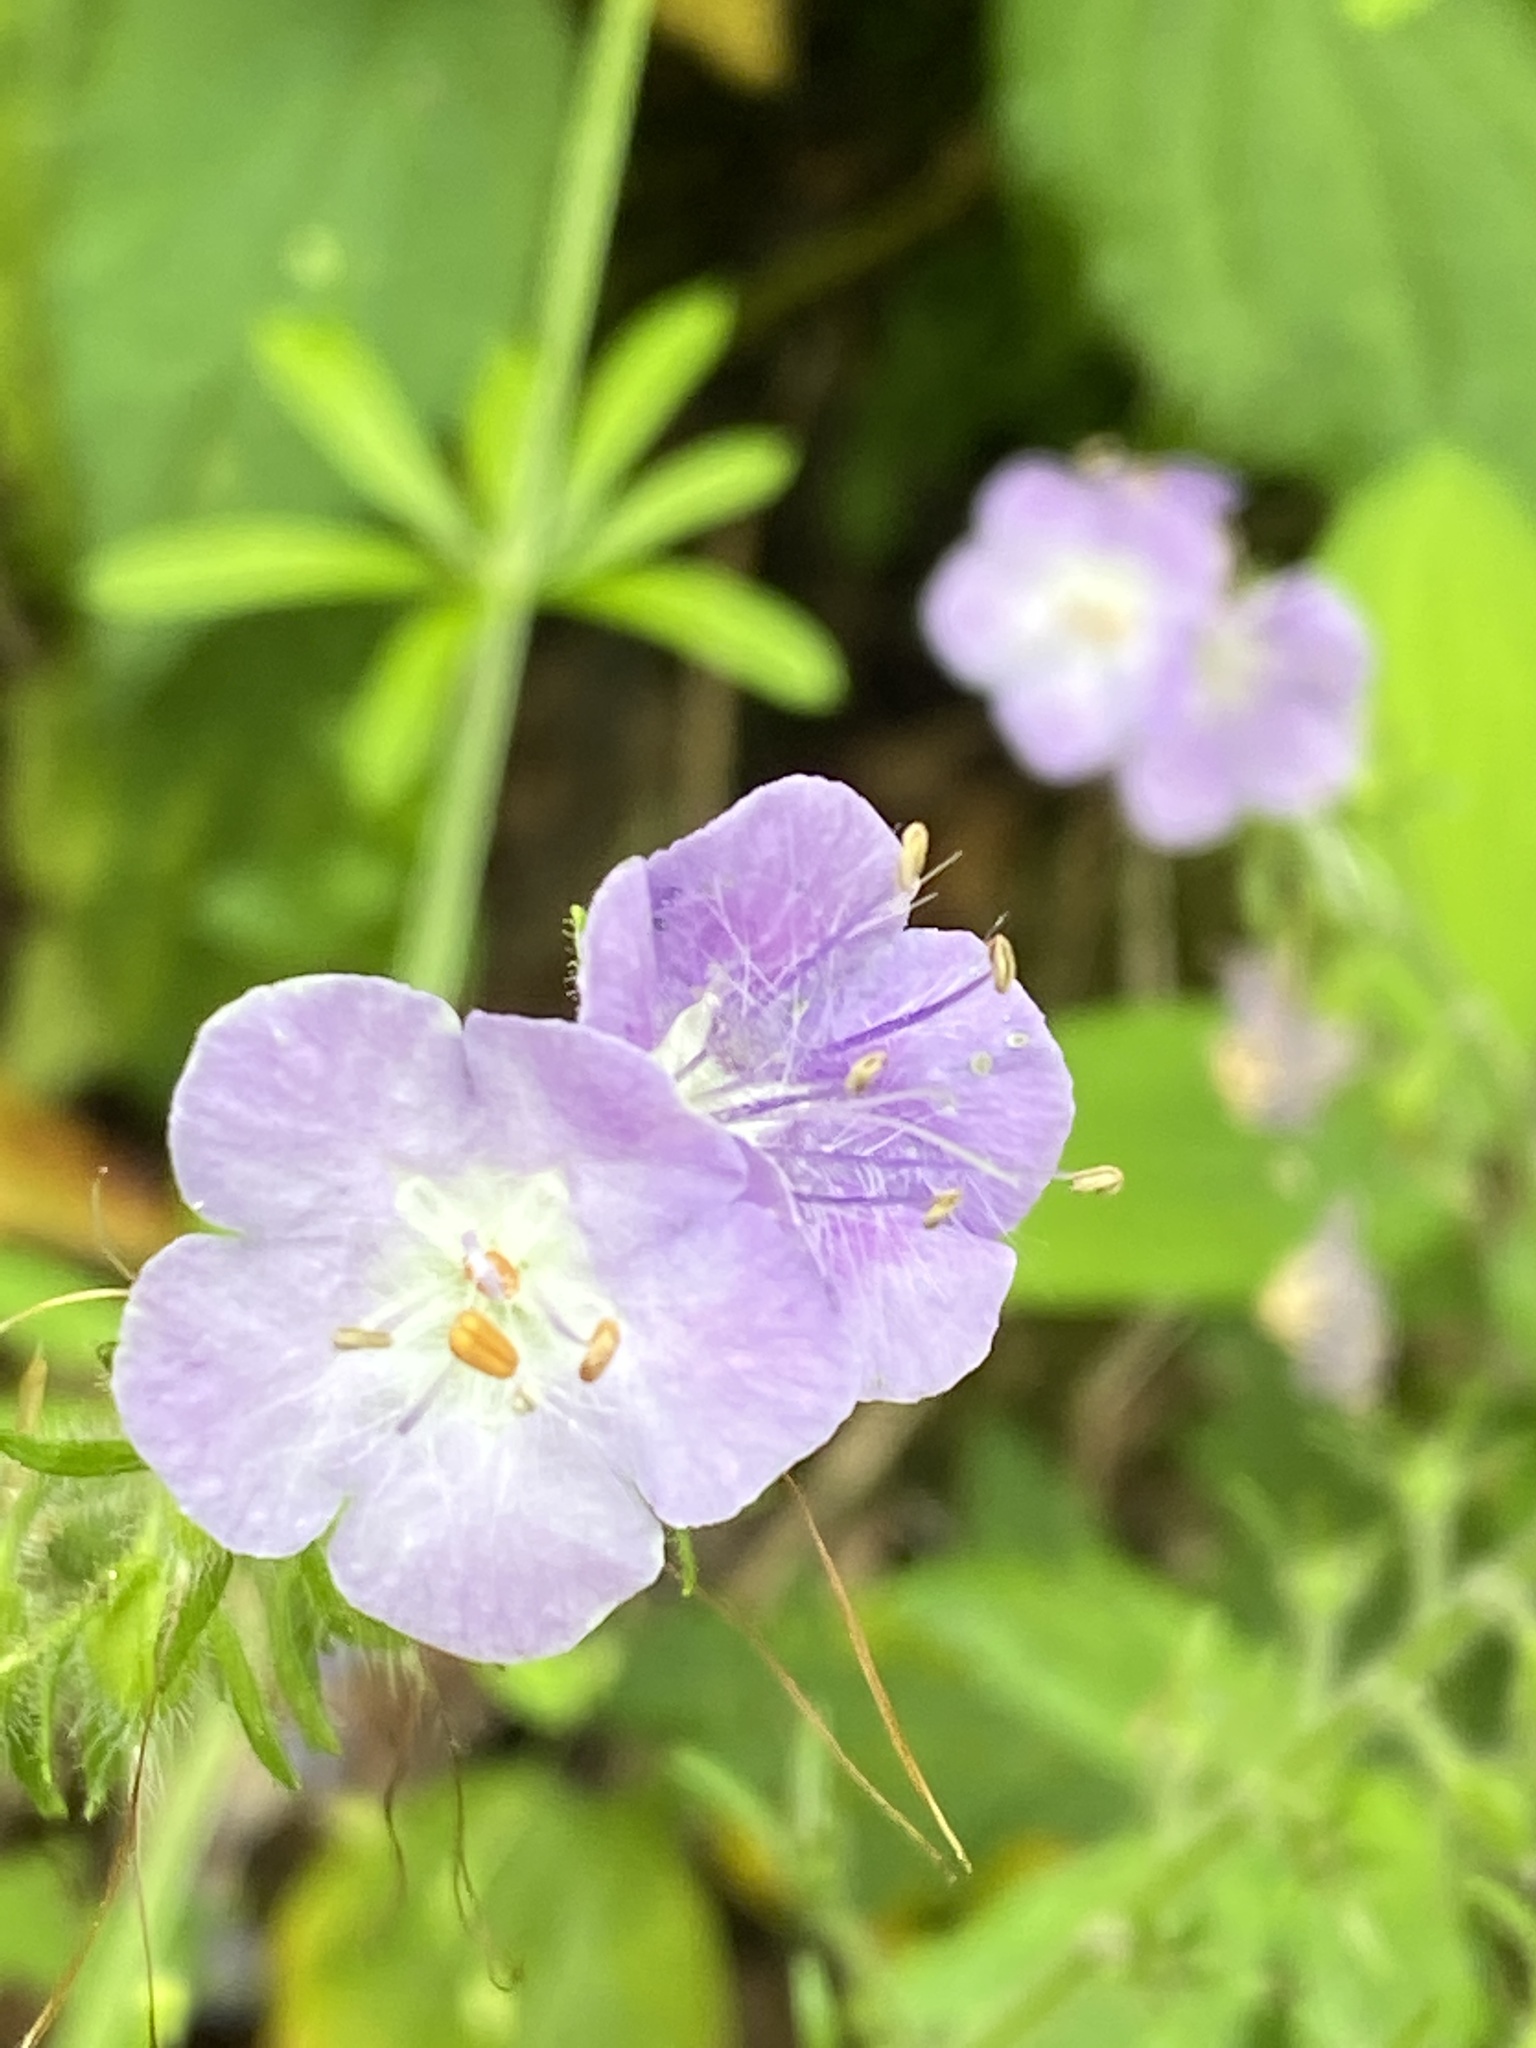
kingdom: Plantae
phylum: Tracheophyta
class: Magnoliopsida
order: Boraginales
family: Hydrophyllaceae
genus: Phacelia
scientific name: Phacelia bipinnatifida
